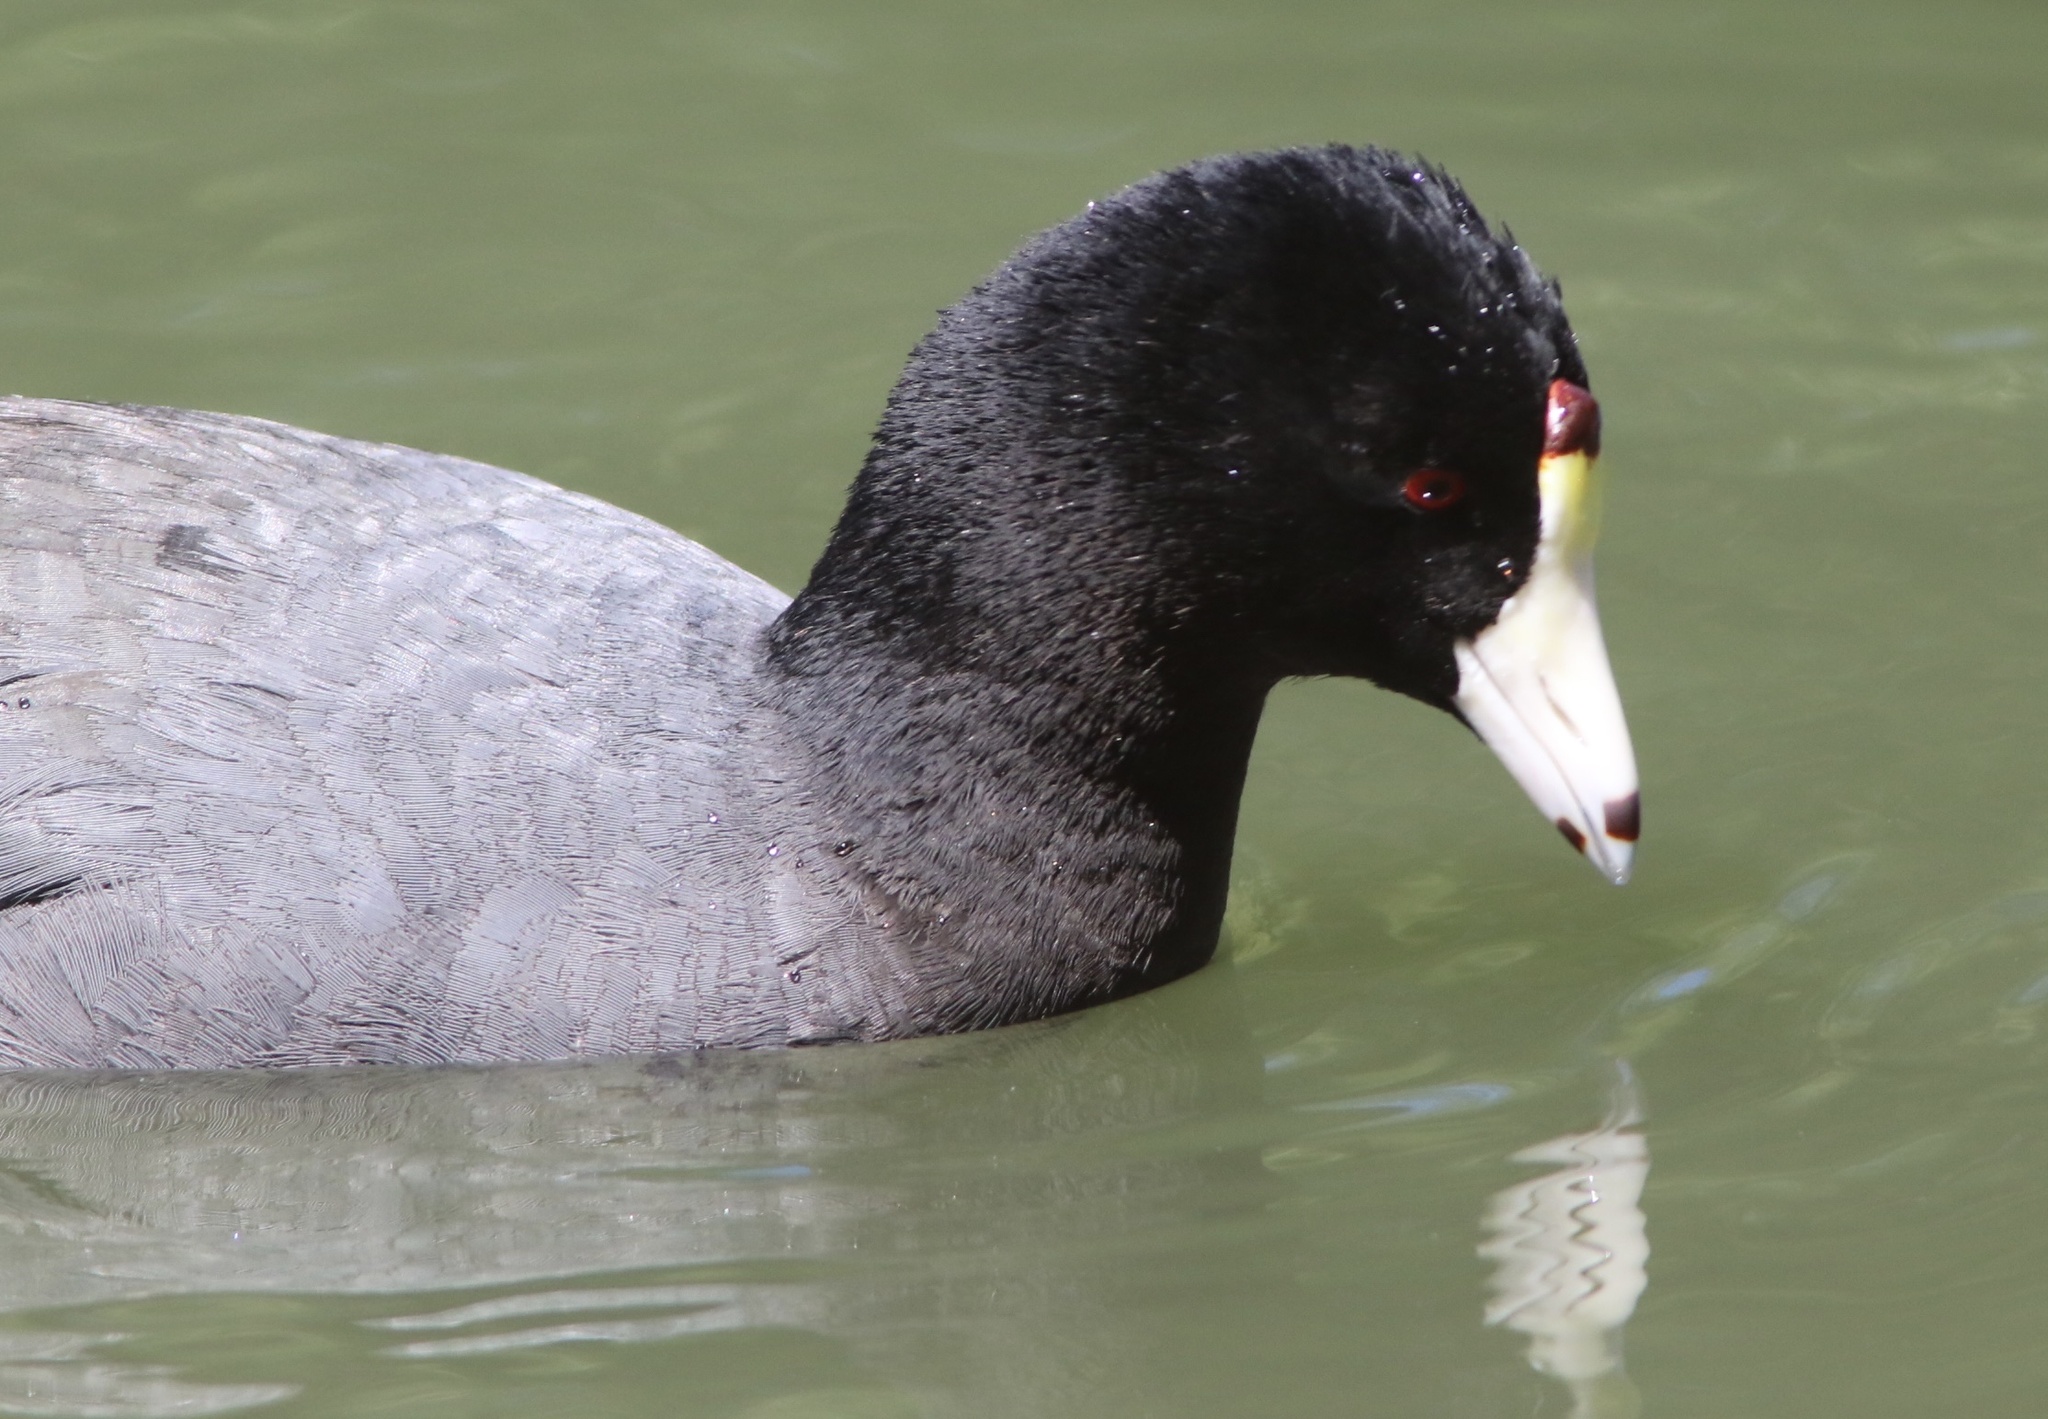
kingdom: Animalia
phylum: Chordata
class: Aves
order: Gruiformes
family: Rallidae
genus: Fulica
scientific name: Fulica americana
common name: American coot
